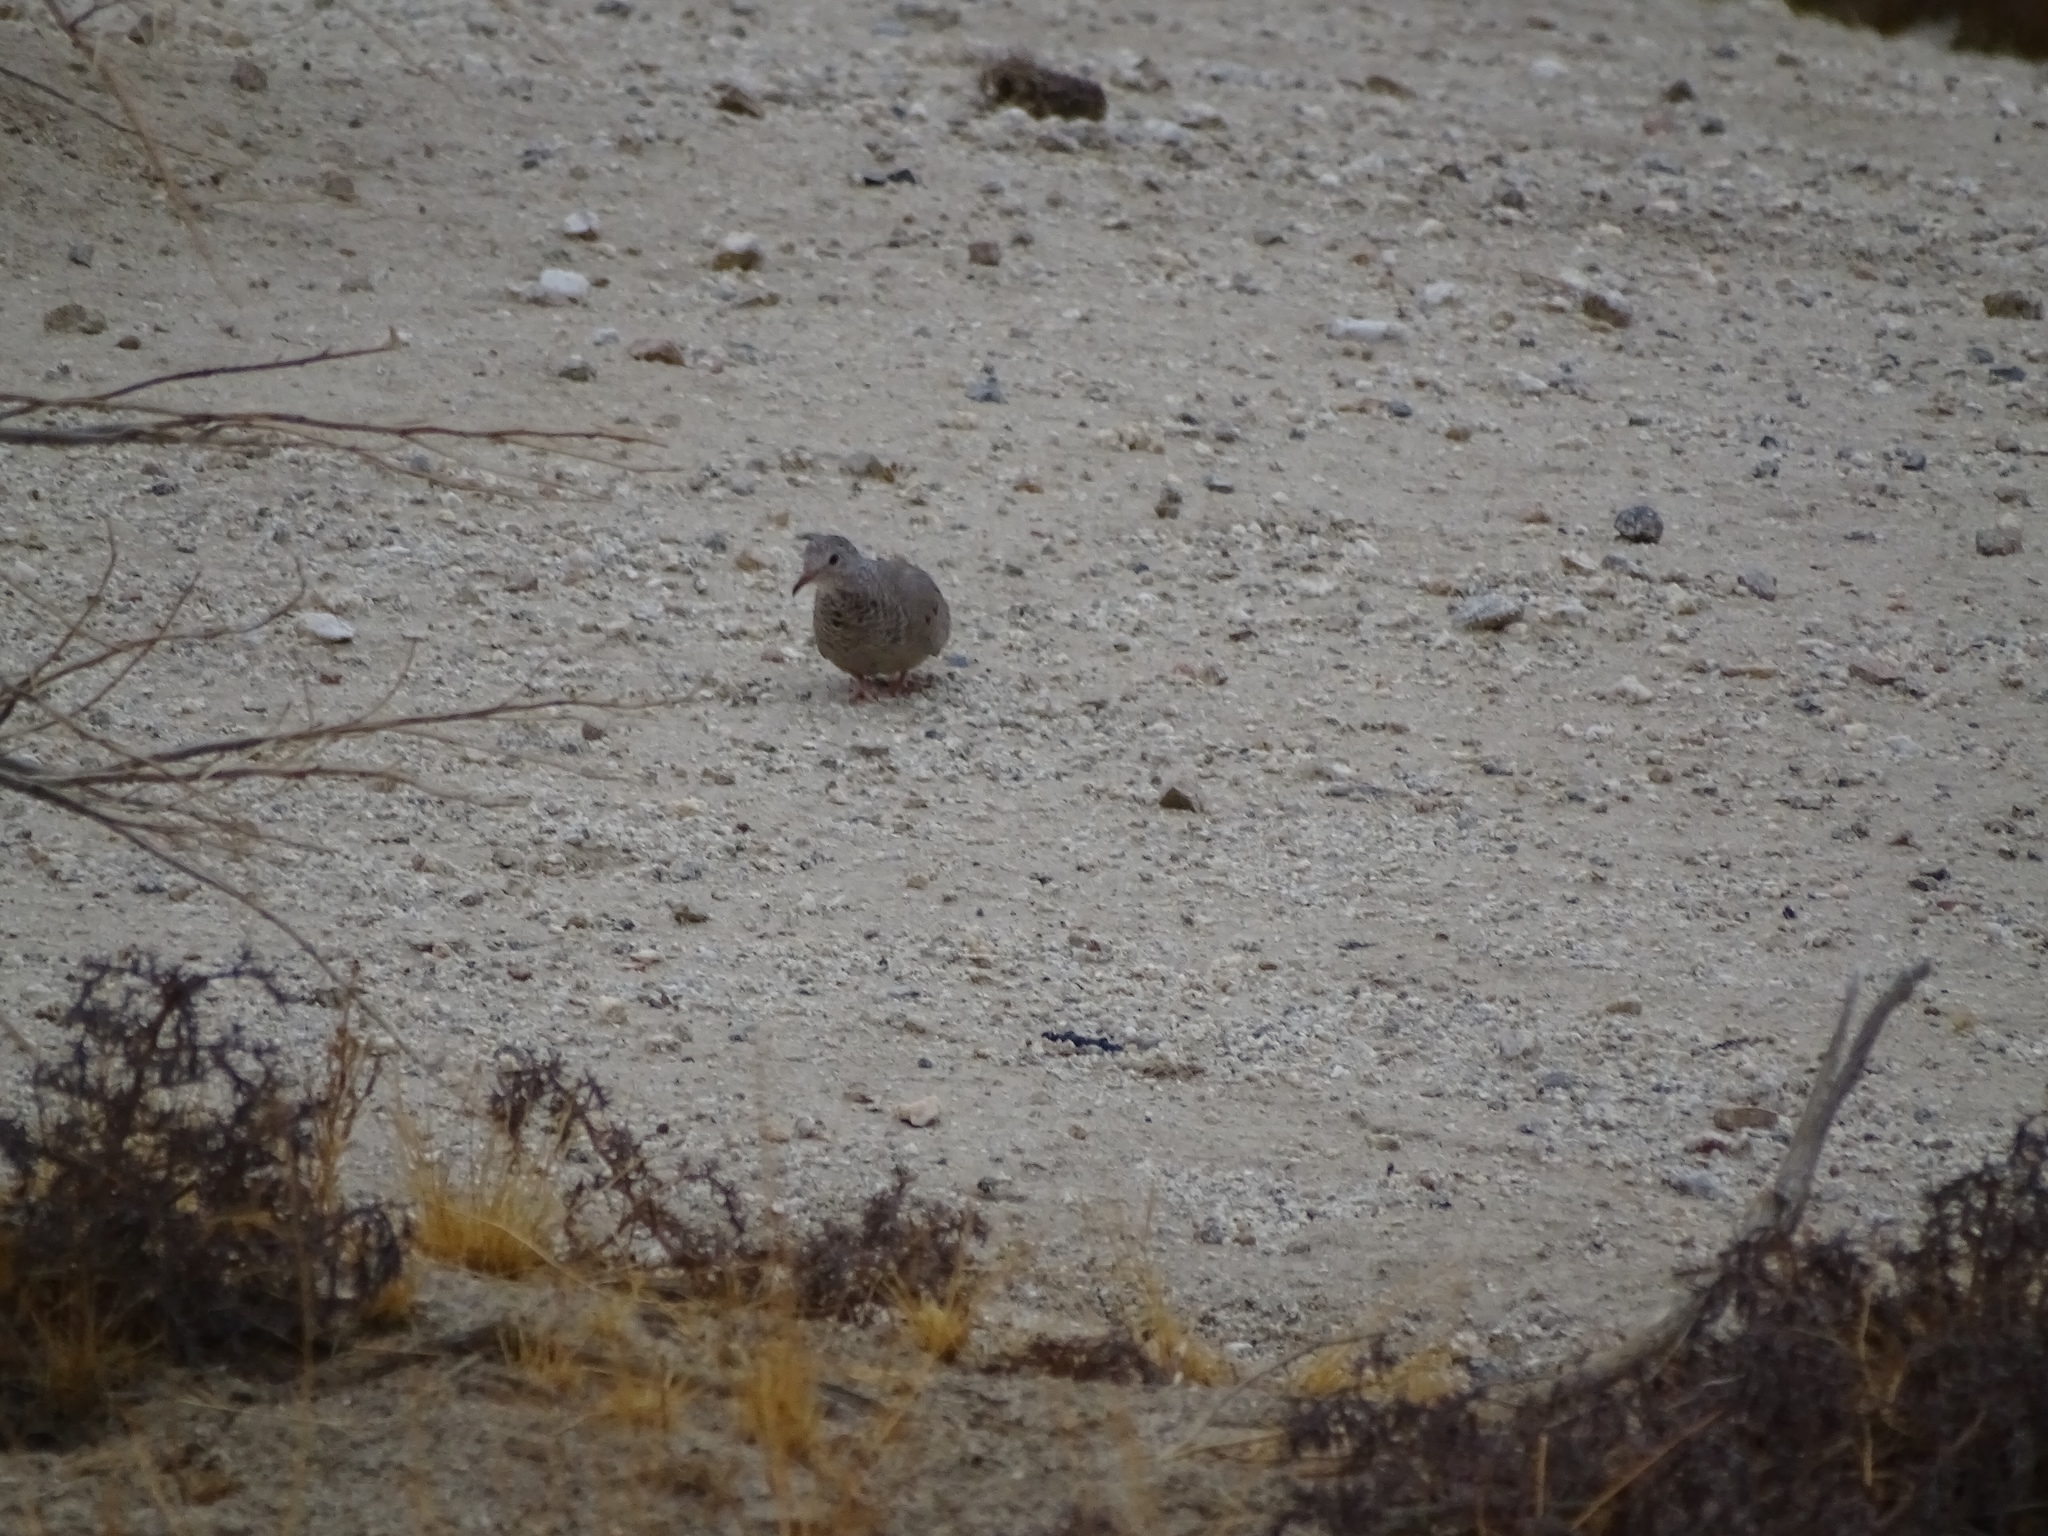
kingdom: Animalia
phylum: Chordata
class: Aves
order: Columbiformes
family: Columbidae
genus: Columbina
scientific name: Columbina passerina
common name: Common ground-dove
